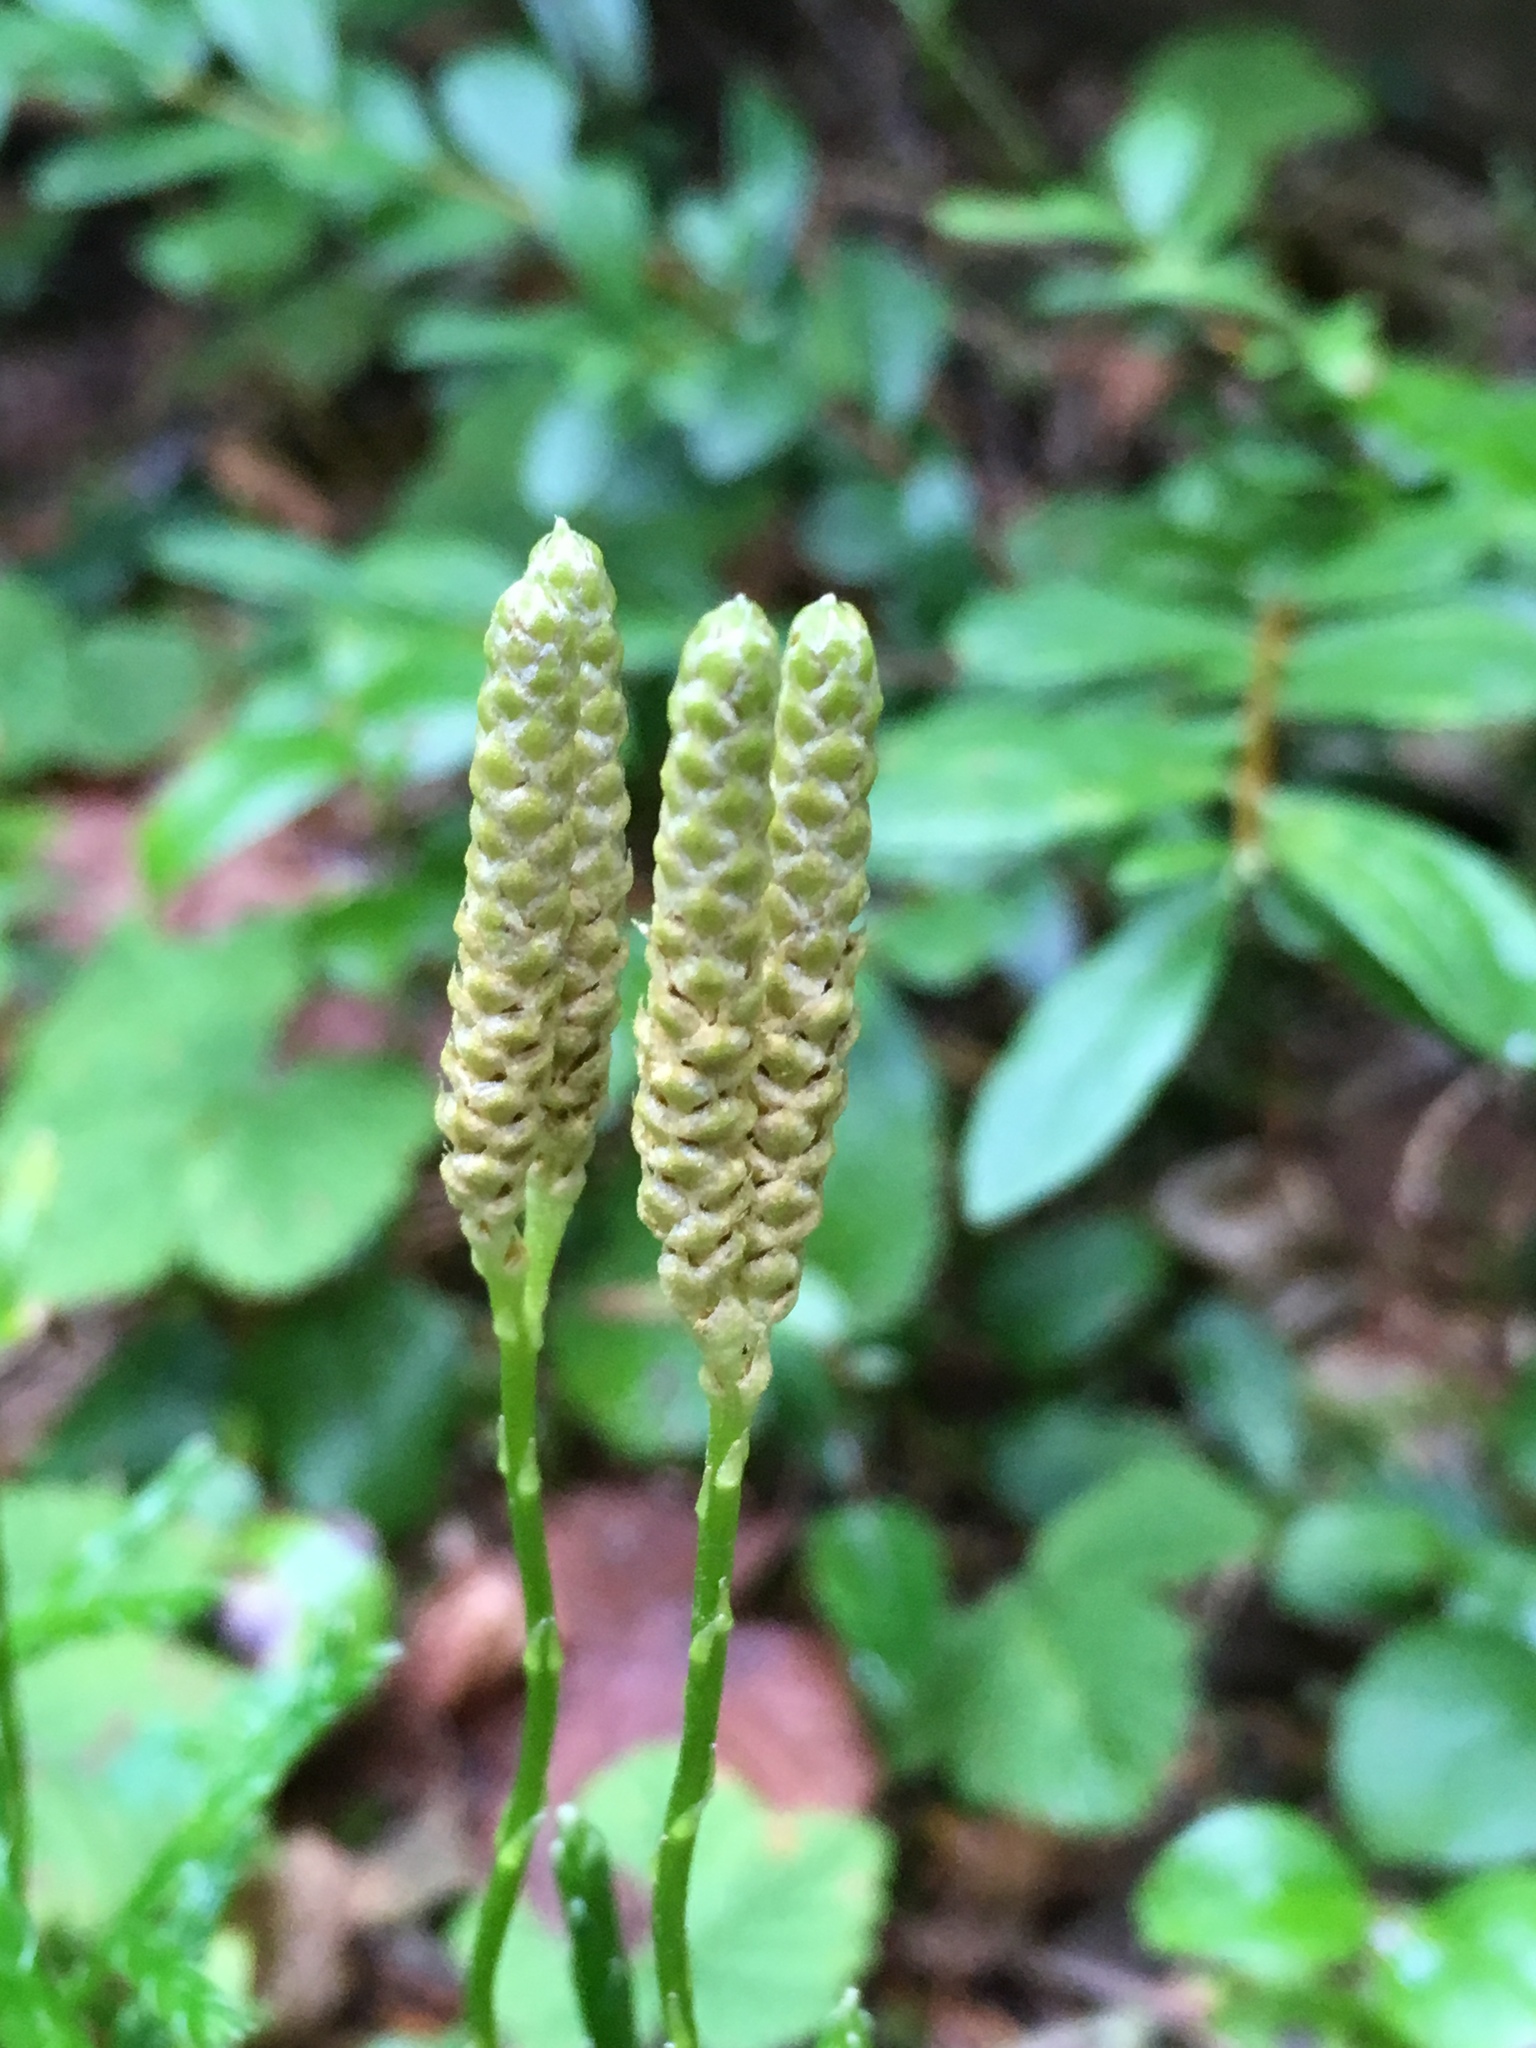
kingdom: Plantae
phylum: Tracheophyta
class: Lycopodiopsida
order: Lycopodiales
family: Lycopodiaceae
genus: Diphasiastrum
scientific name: Diphasiastrum complanatum
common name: Northern running-pine
